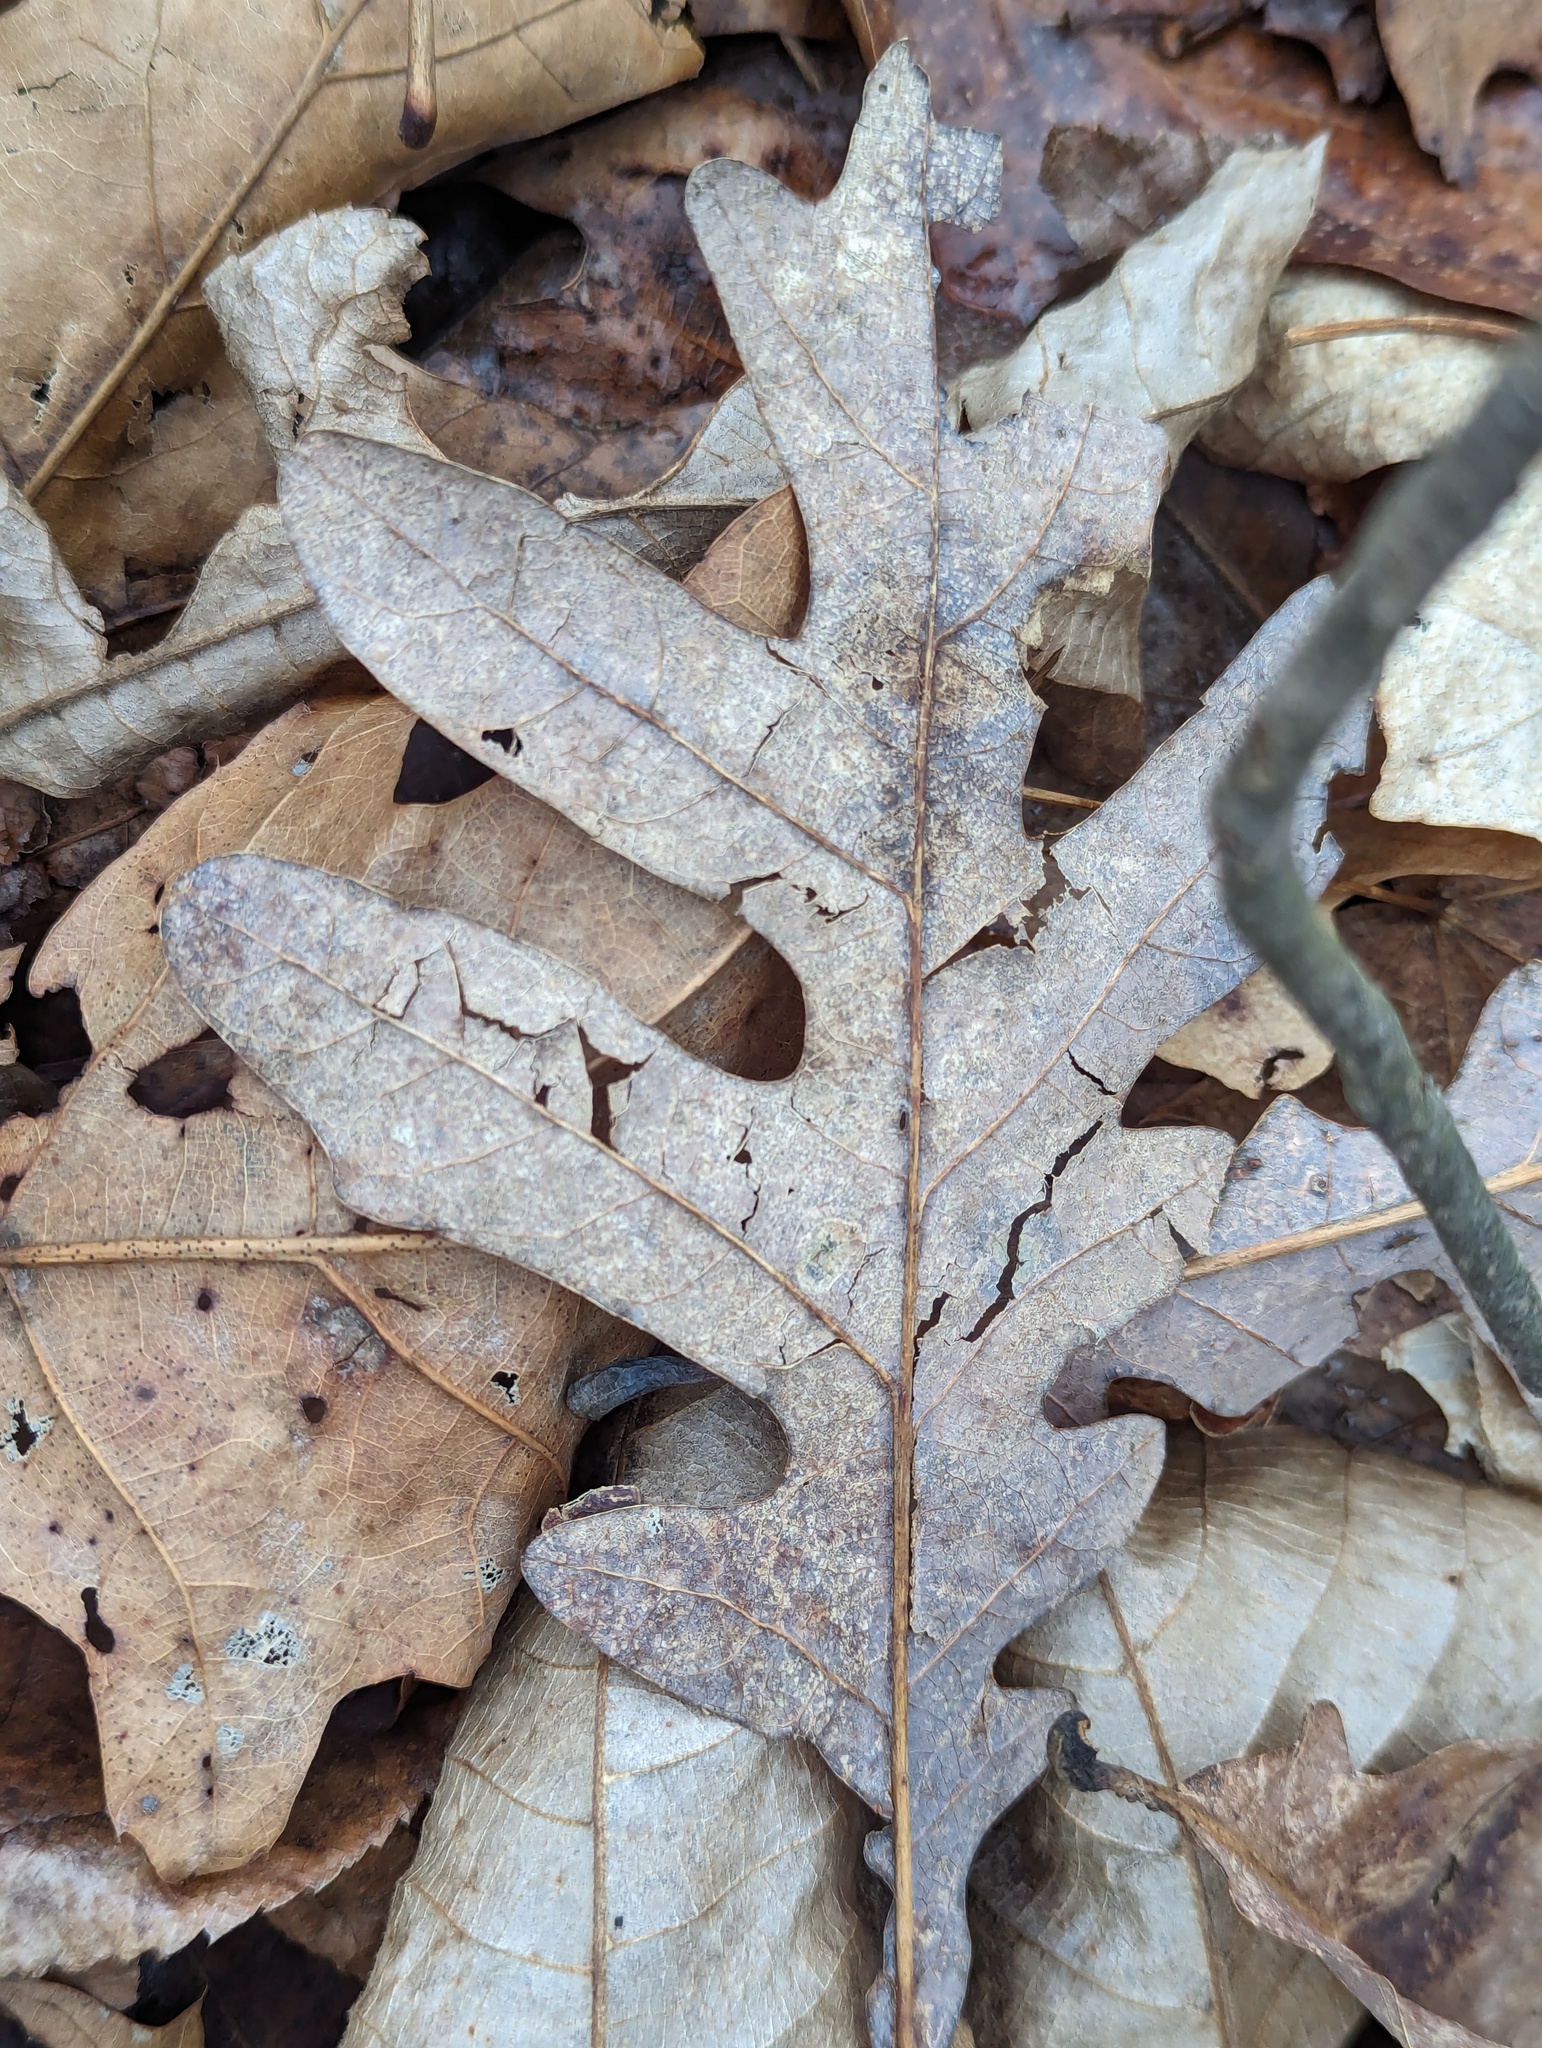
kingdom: Plantae
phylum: Tracheophyta
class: Magnoliopsida
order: Fagales
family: Fagaceae
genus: Quercus
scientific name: Quercus alba
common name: White oak
